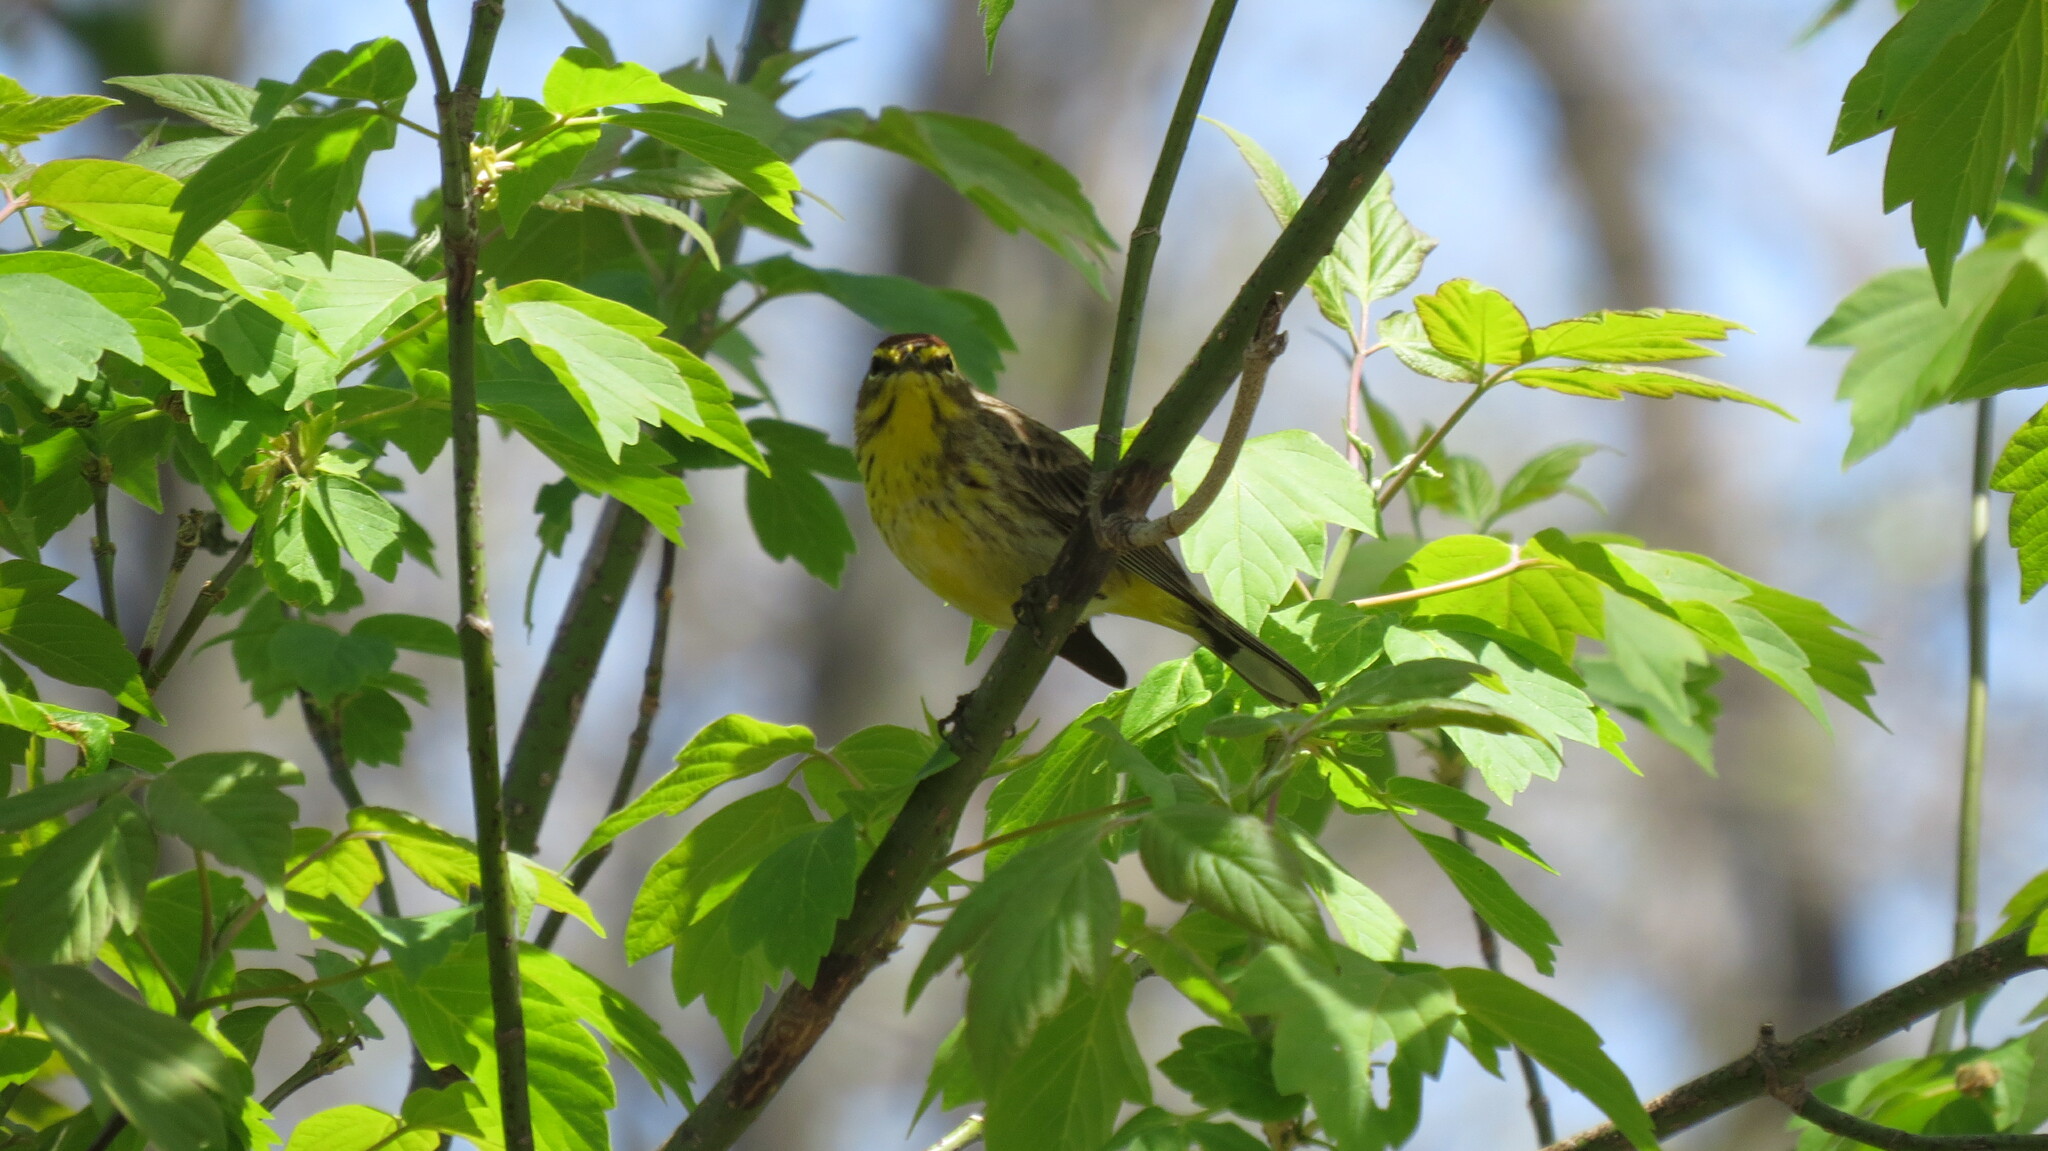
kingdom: Animalia
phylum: Chordata
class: Aves
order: Passeriformes
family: Parulidae
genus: Setophaga
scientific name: Setophaga palmarum
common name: Palm warbler
